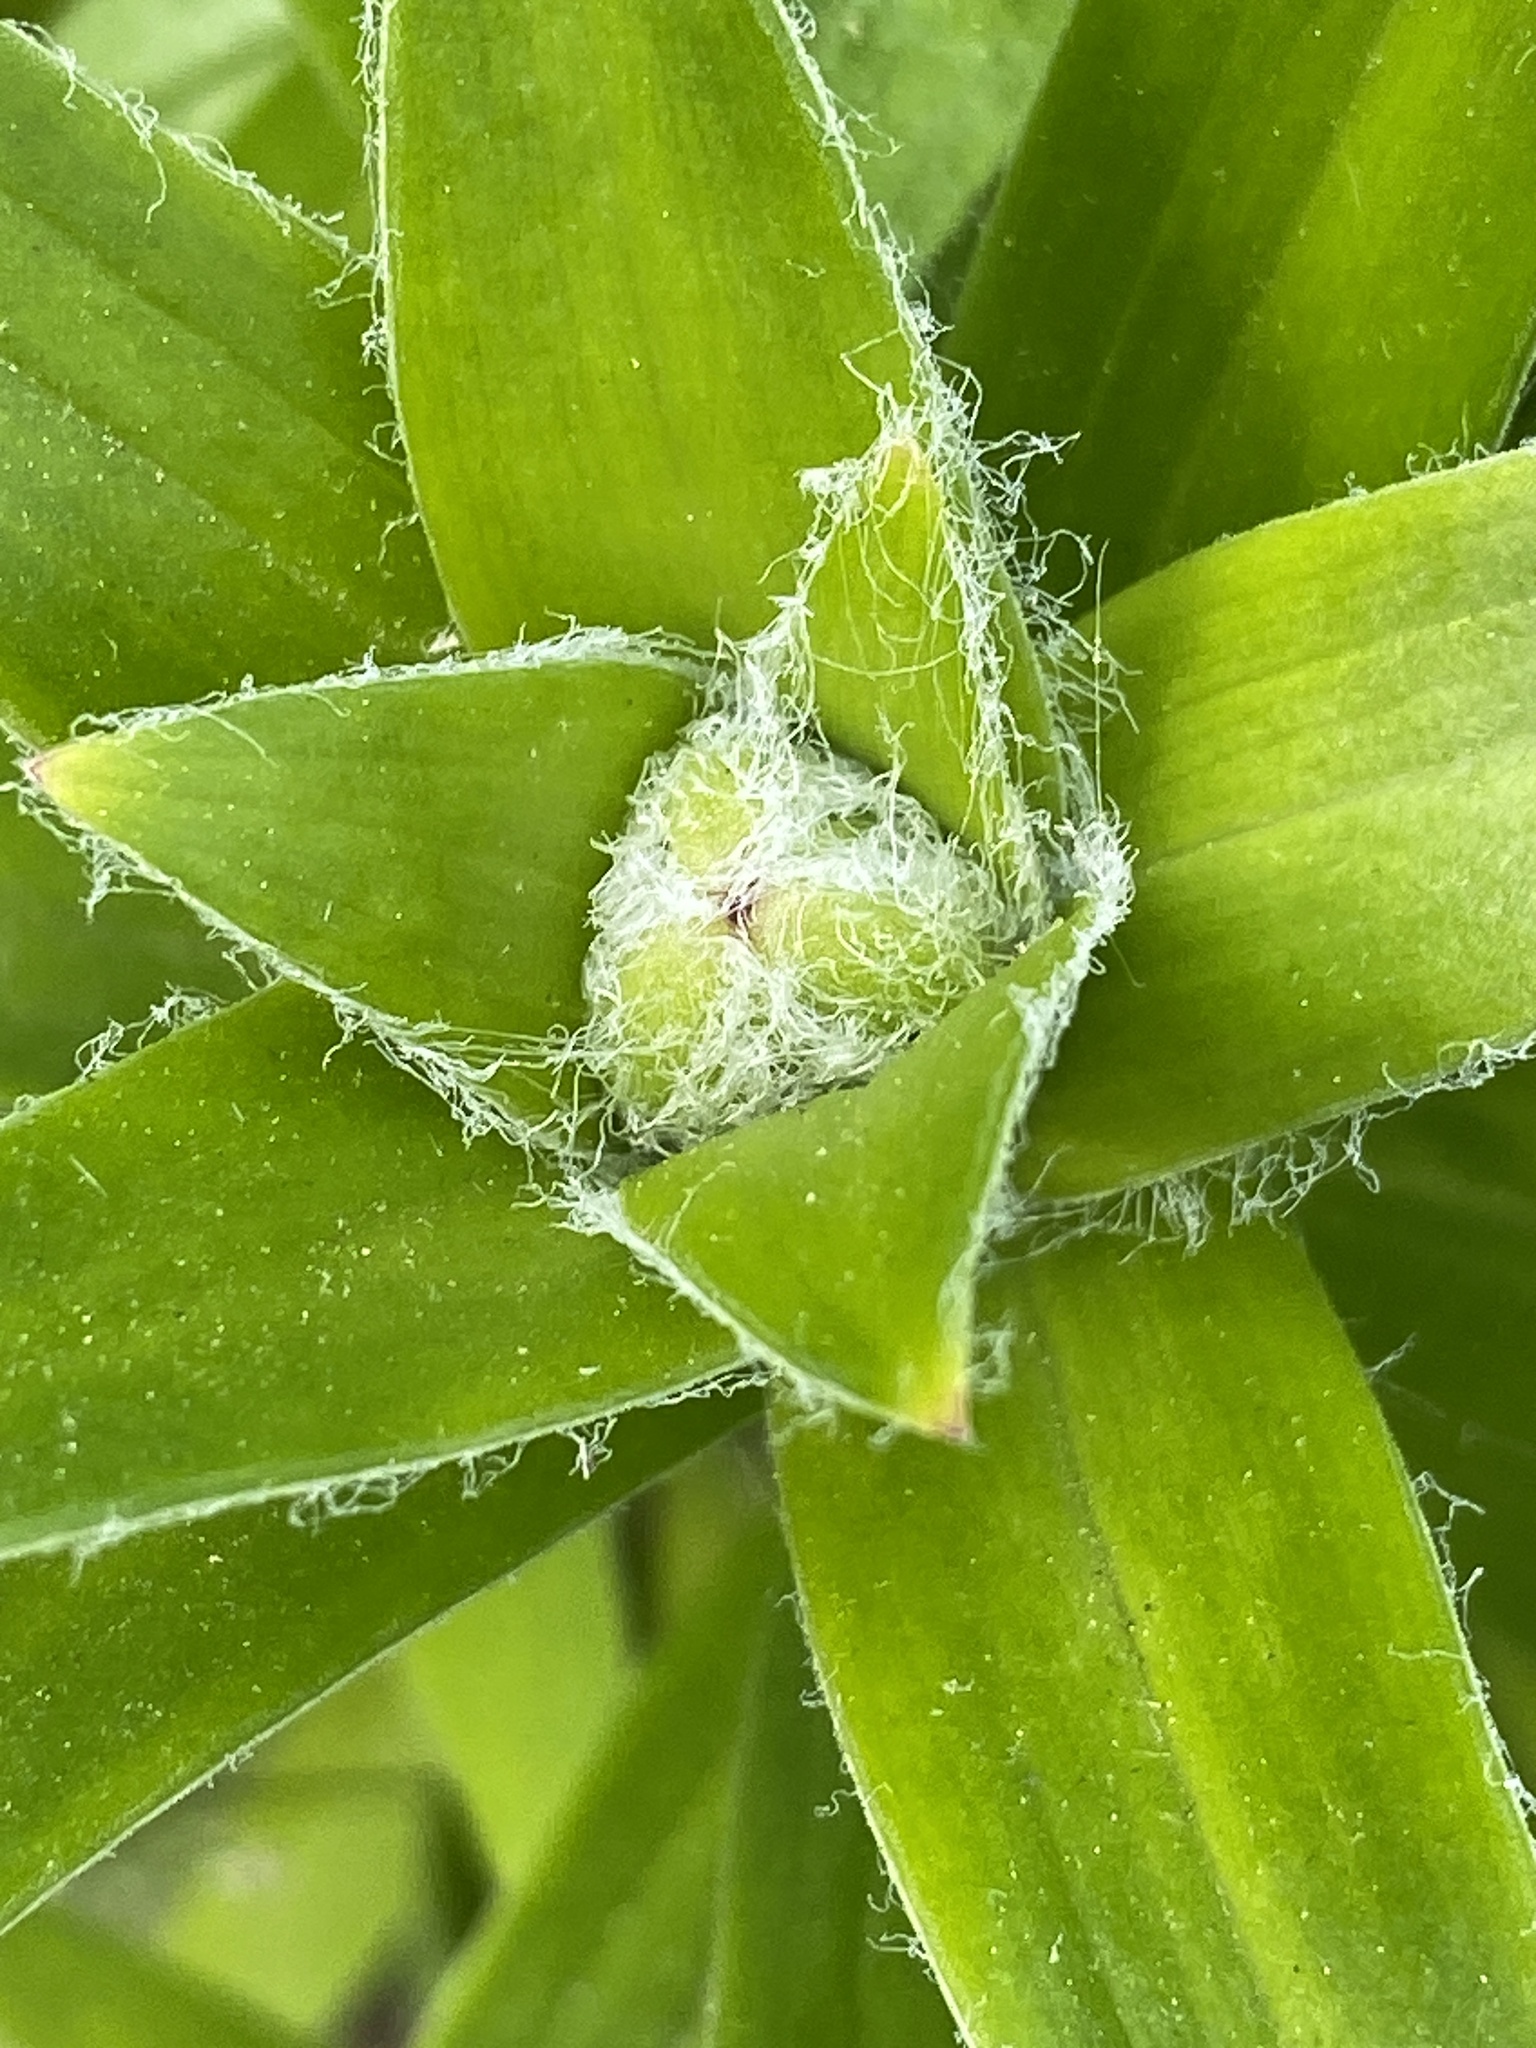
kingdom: Plantae
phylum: Tracheophyta
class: Magnoliopsida
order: Asterales
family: Asteraceae
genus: Erigeron
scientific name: Erigeron canadensis
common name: Canadian fleabane
